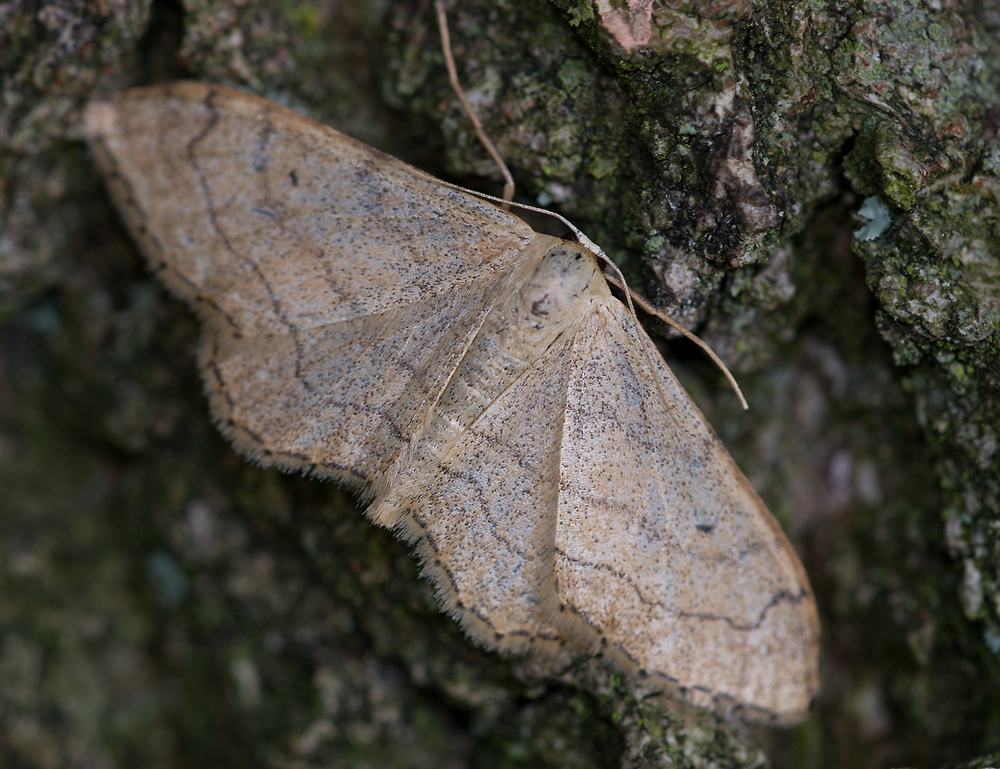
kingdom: Animalia
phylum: Arthropoda
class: Insecta
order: Lepidoptera
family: Geometridae
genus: Idaea
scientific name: Idaea aversata
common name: Riband wave
